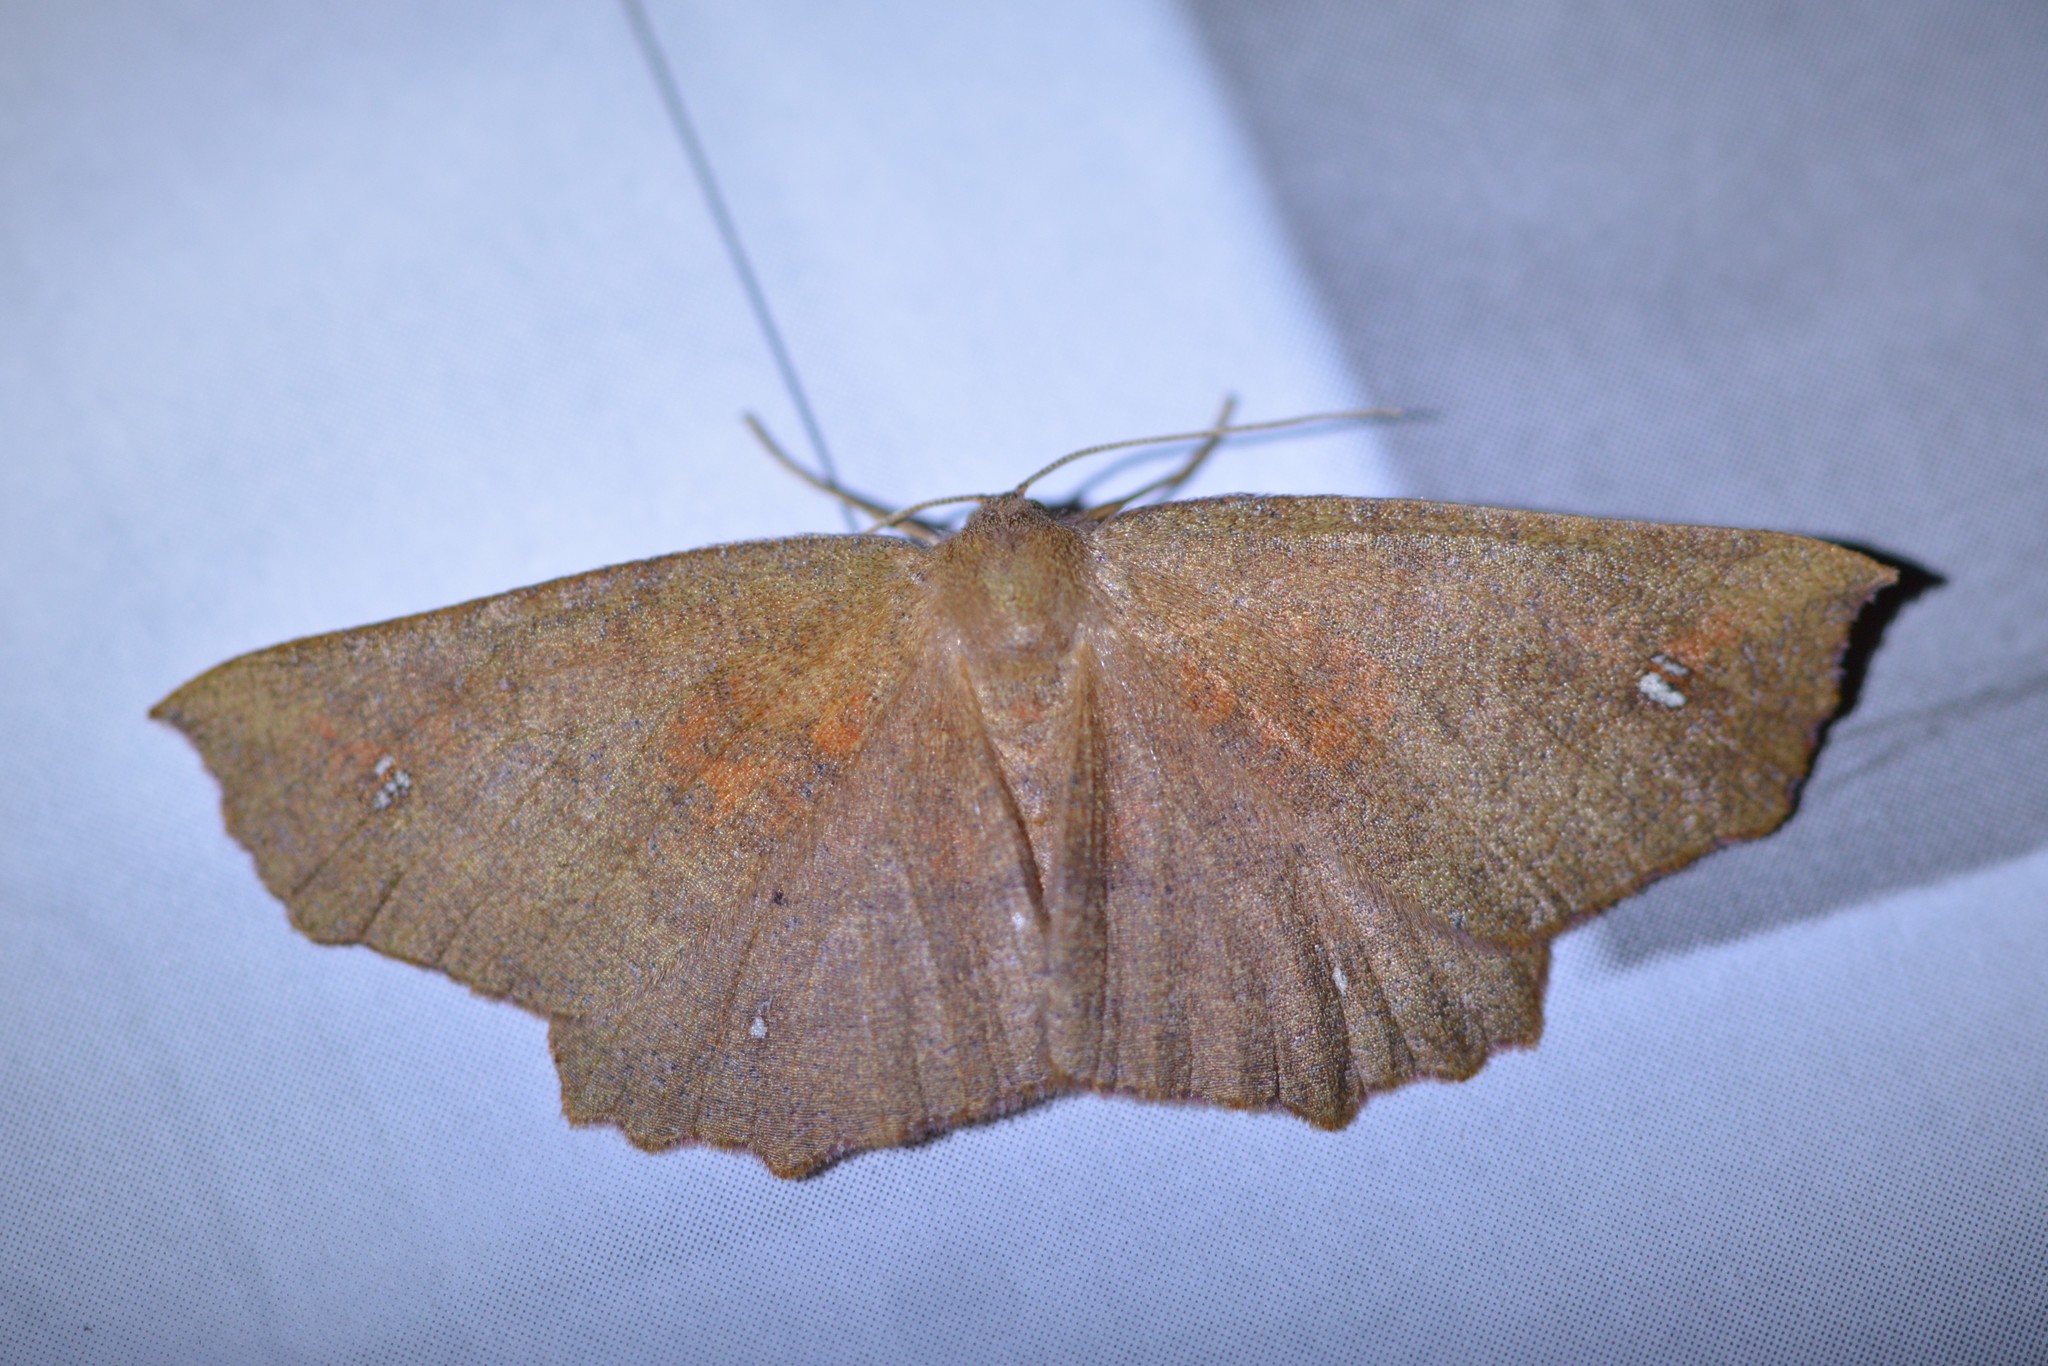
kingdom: Animalia
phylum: Arthropoda
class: Insecta
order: Lepidoptera
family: Geometridae
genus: Xyridacma
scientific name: Xyridacma ustaria
